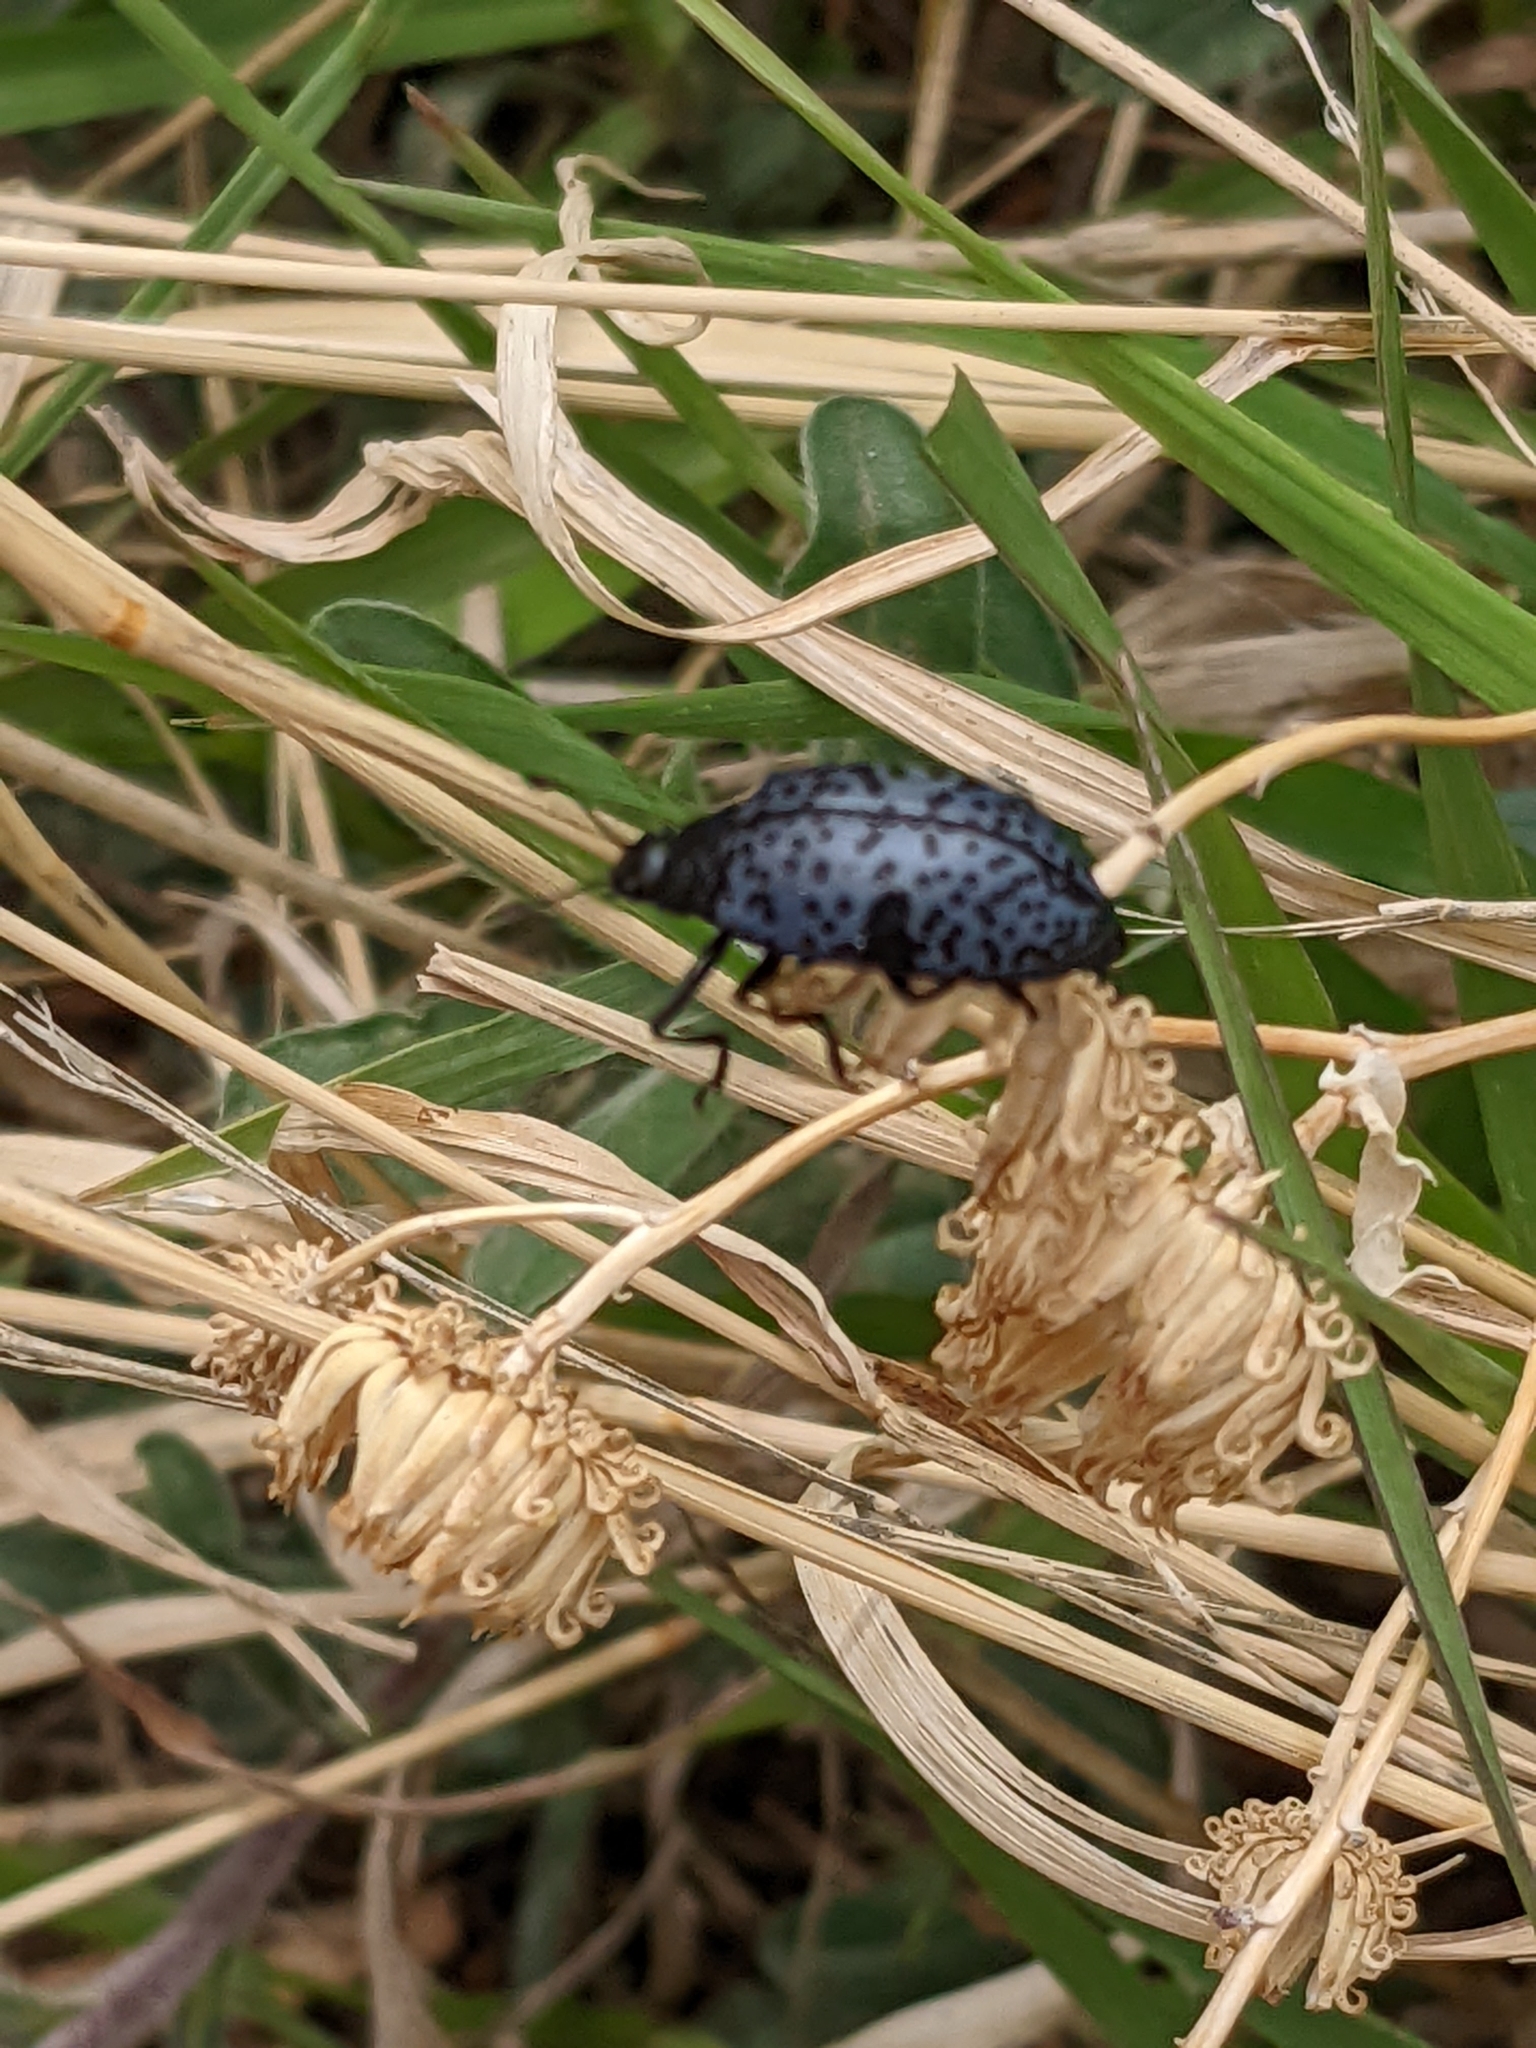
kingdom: Animalia
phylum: Arthropoda
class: Insecta
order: Coleoptera
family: Erotylidae
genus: Gibbifer
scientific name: Gibbifer californicus
